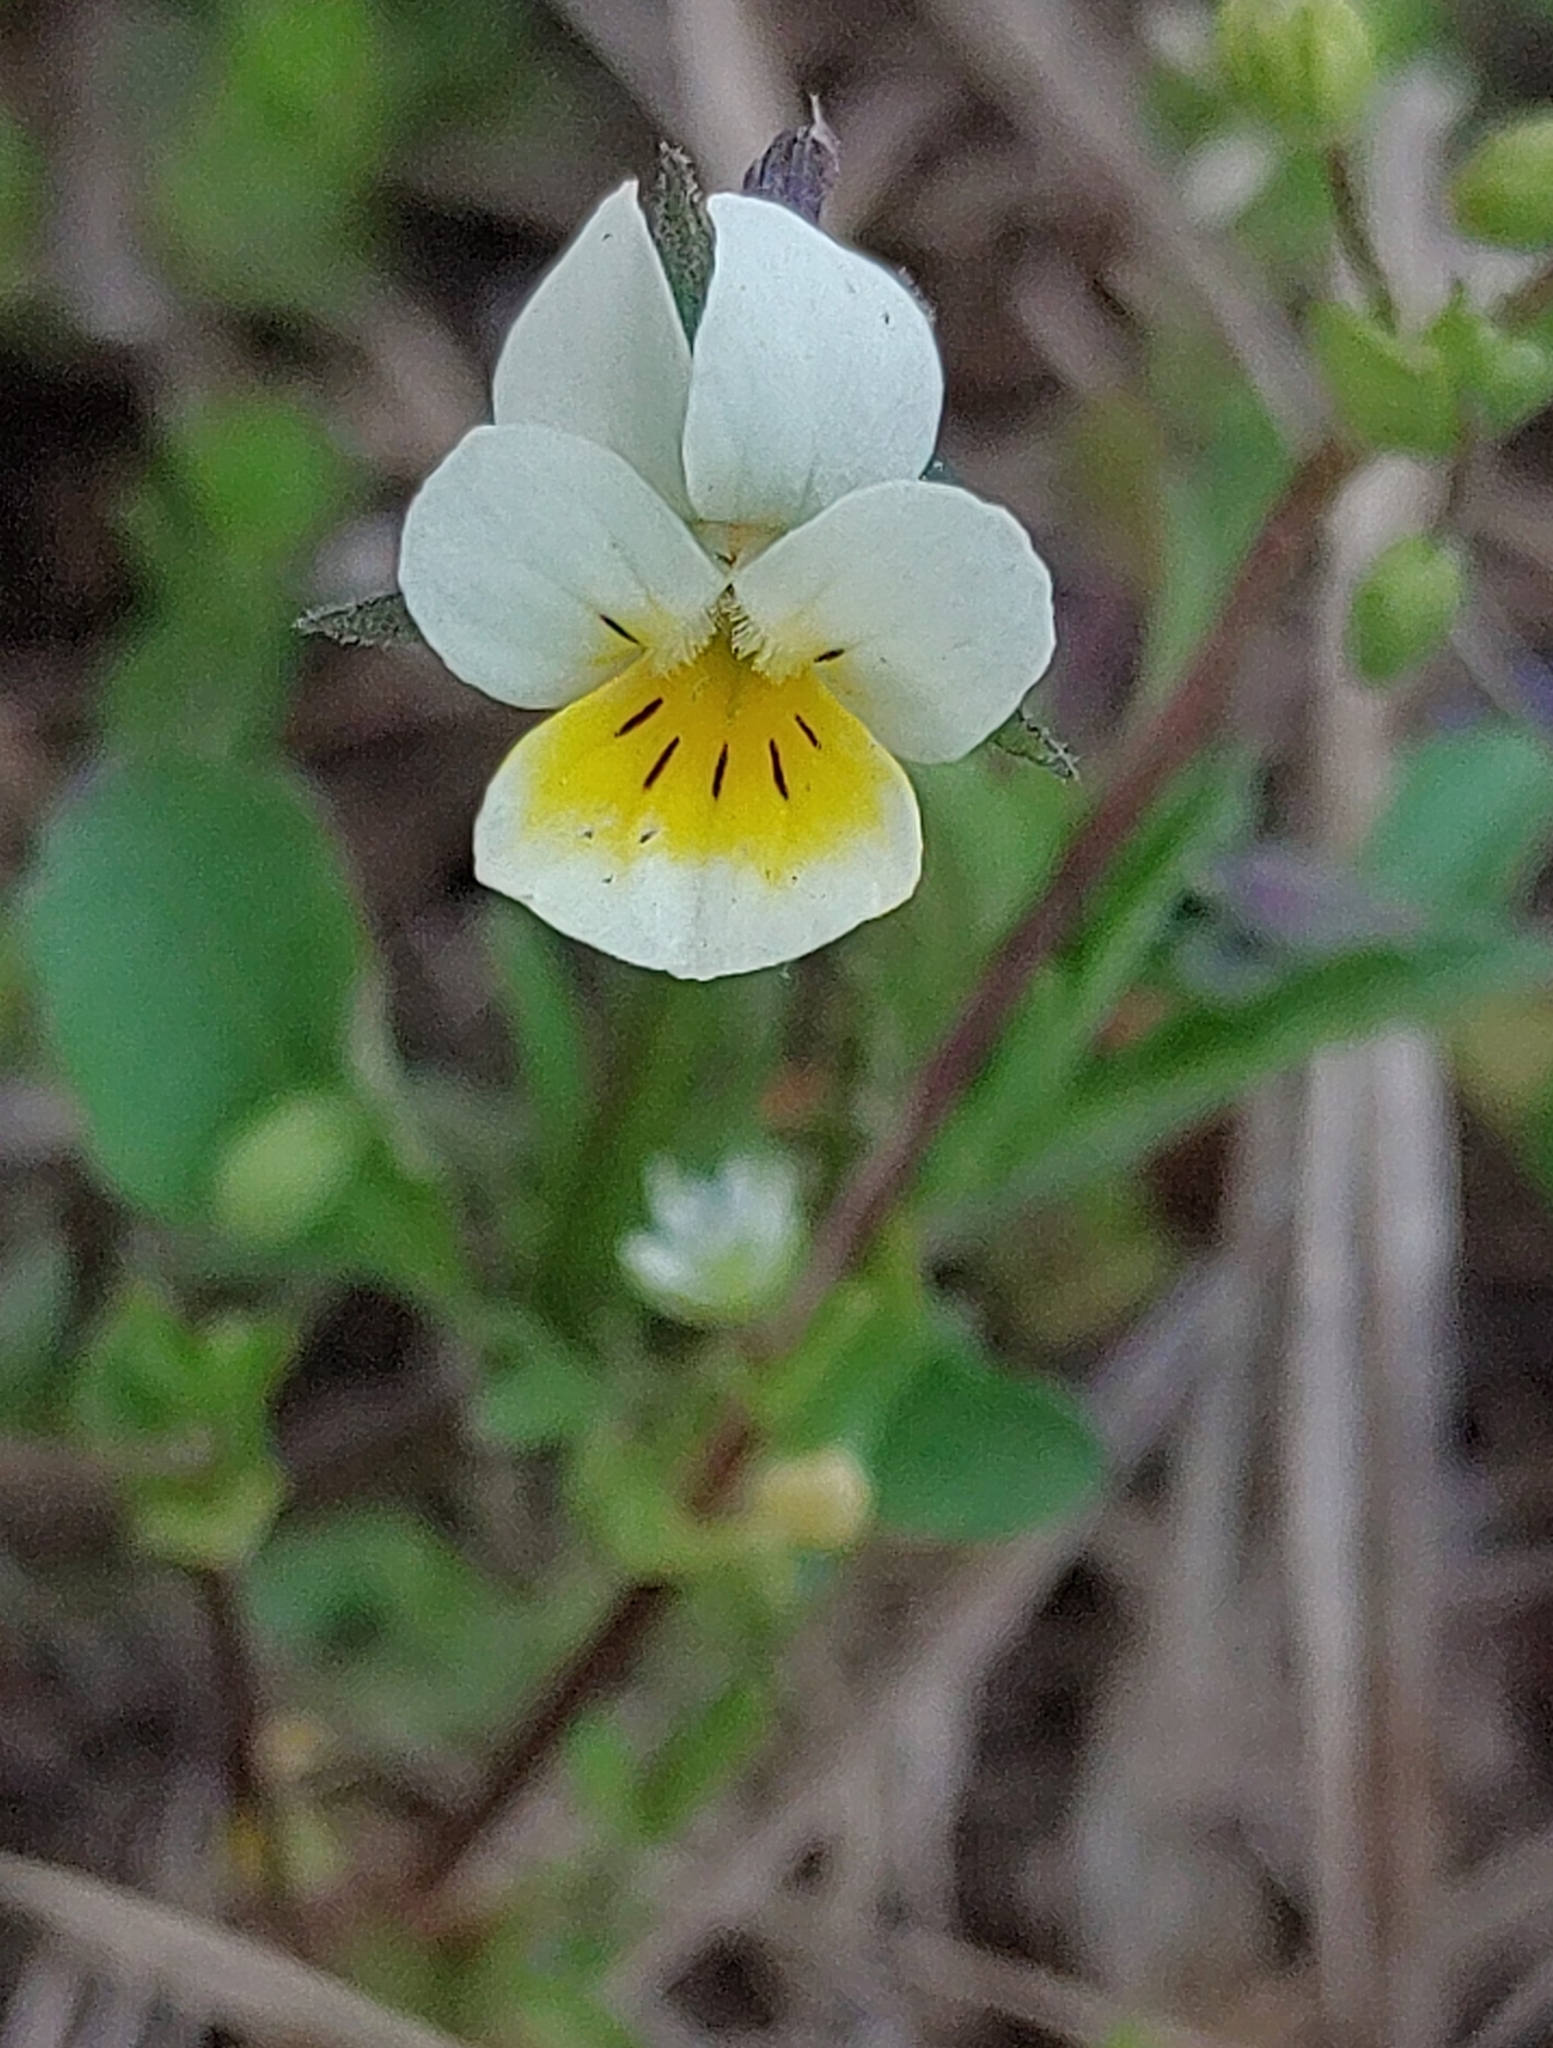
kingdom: Plantae
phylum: Tracheophyta
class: Magnoliopsida
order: Malpighiales
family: Violaceae
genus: Viola
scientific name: Viola arvensis
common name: Field pansy
